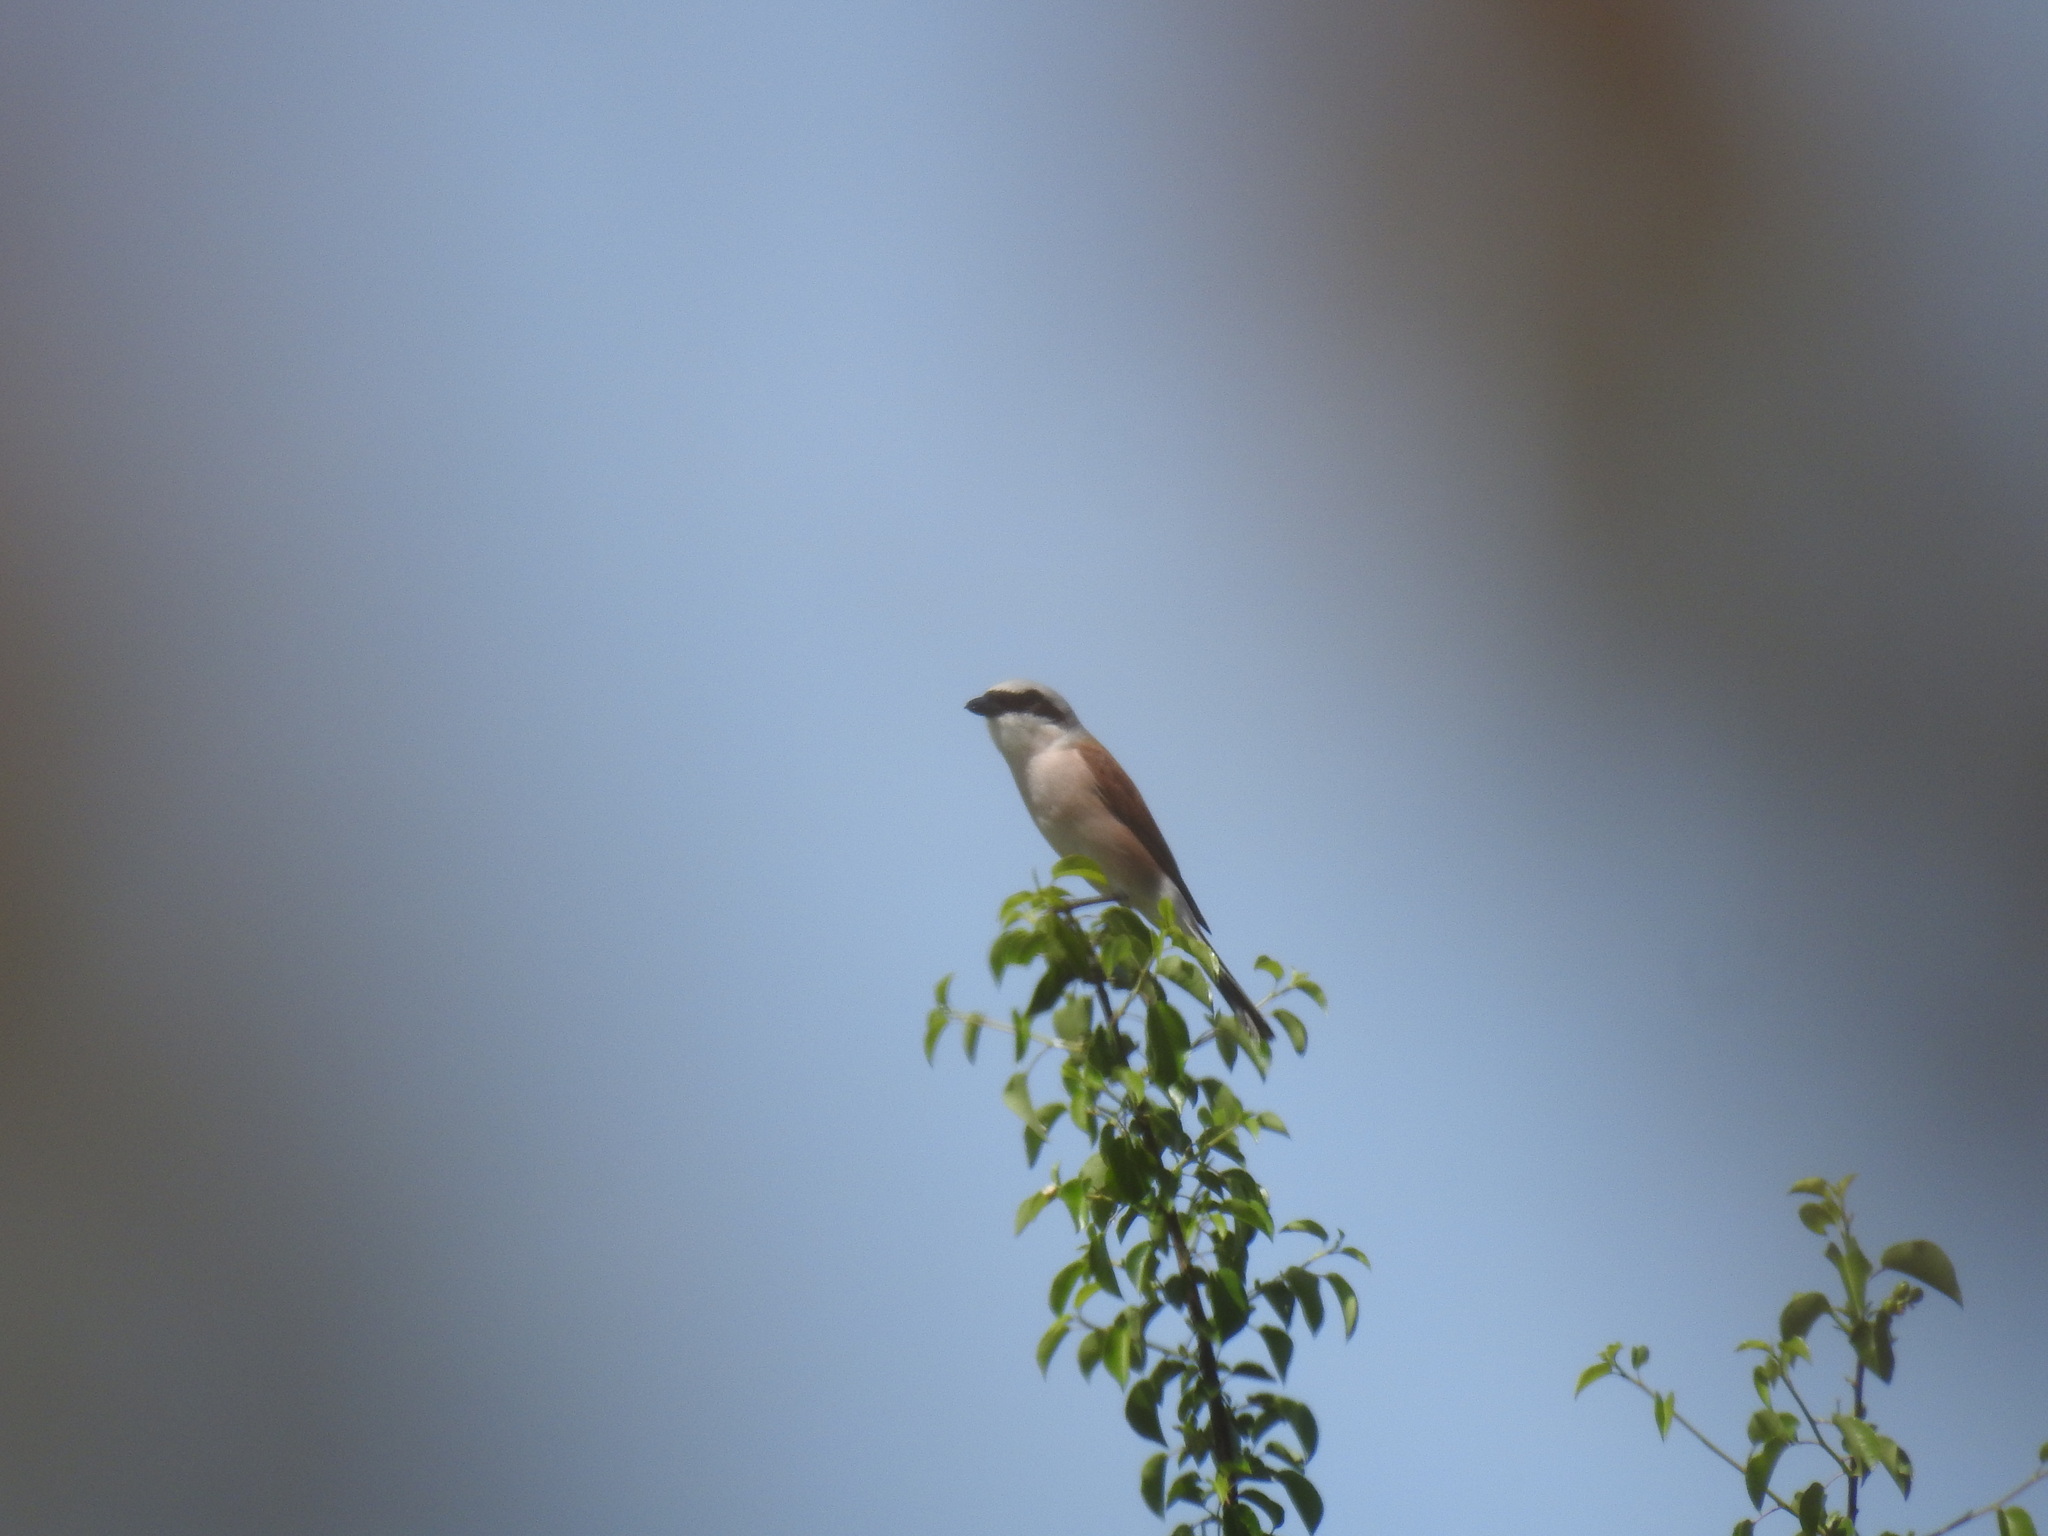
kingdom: Animalia
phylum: Chordata
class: Aves
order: Passeriformes
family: Laniidae
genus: Lanius
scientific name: Lanius collurio
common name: Red-backed shrike
